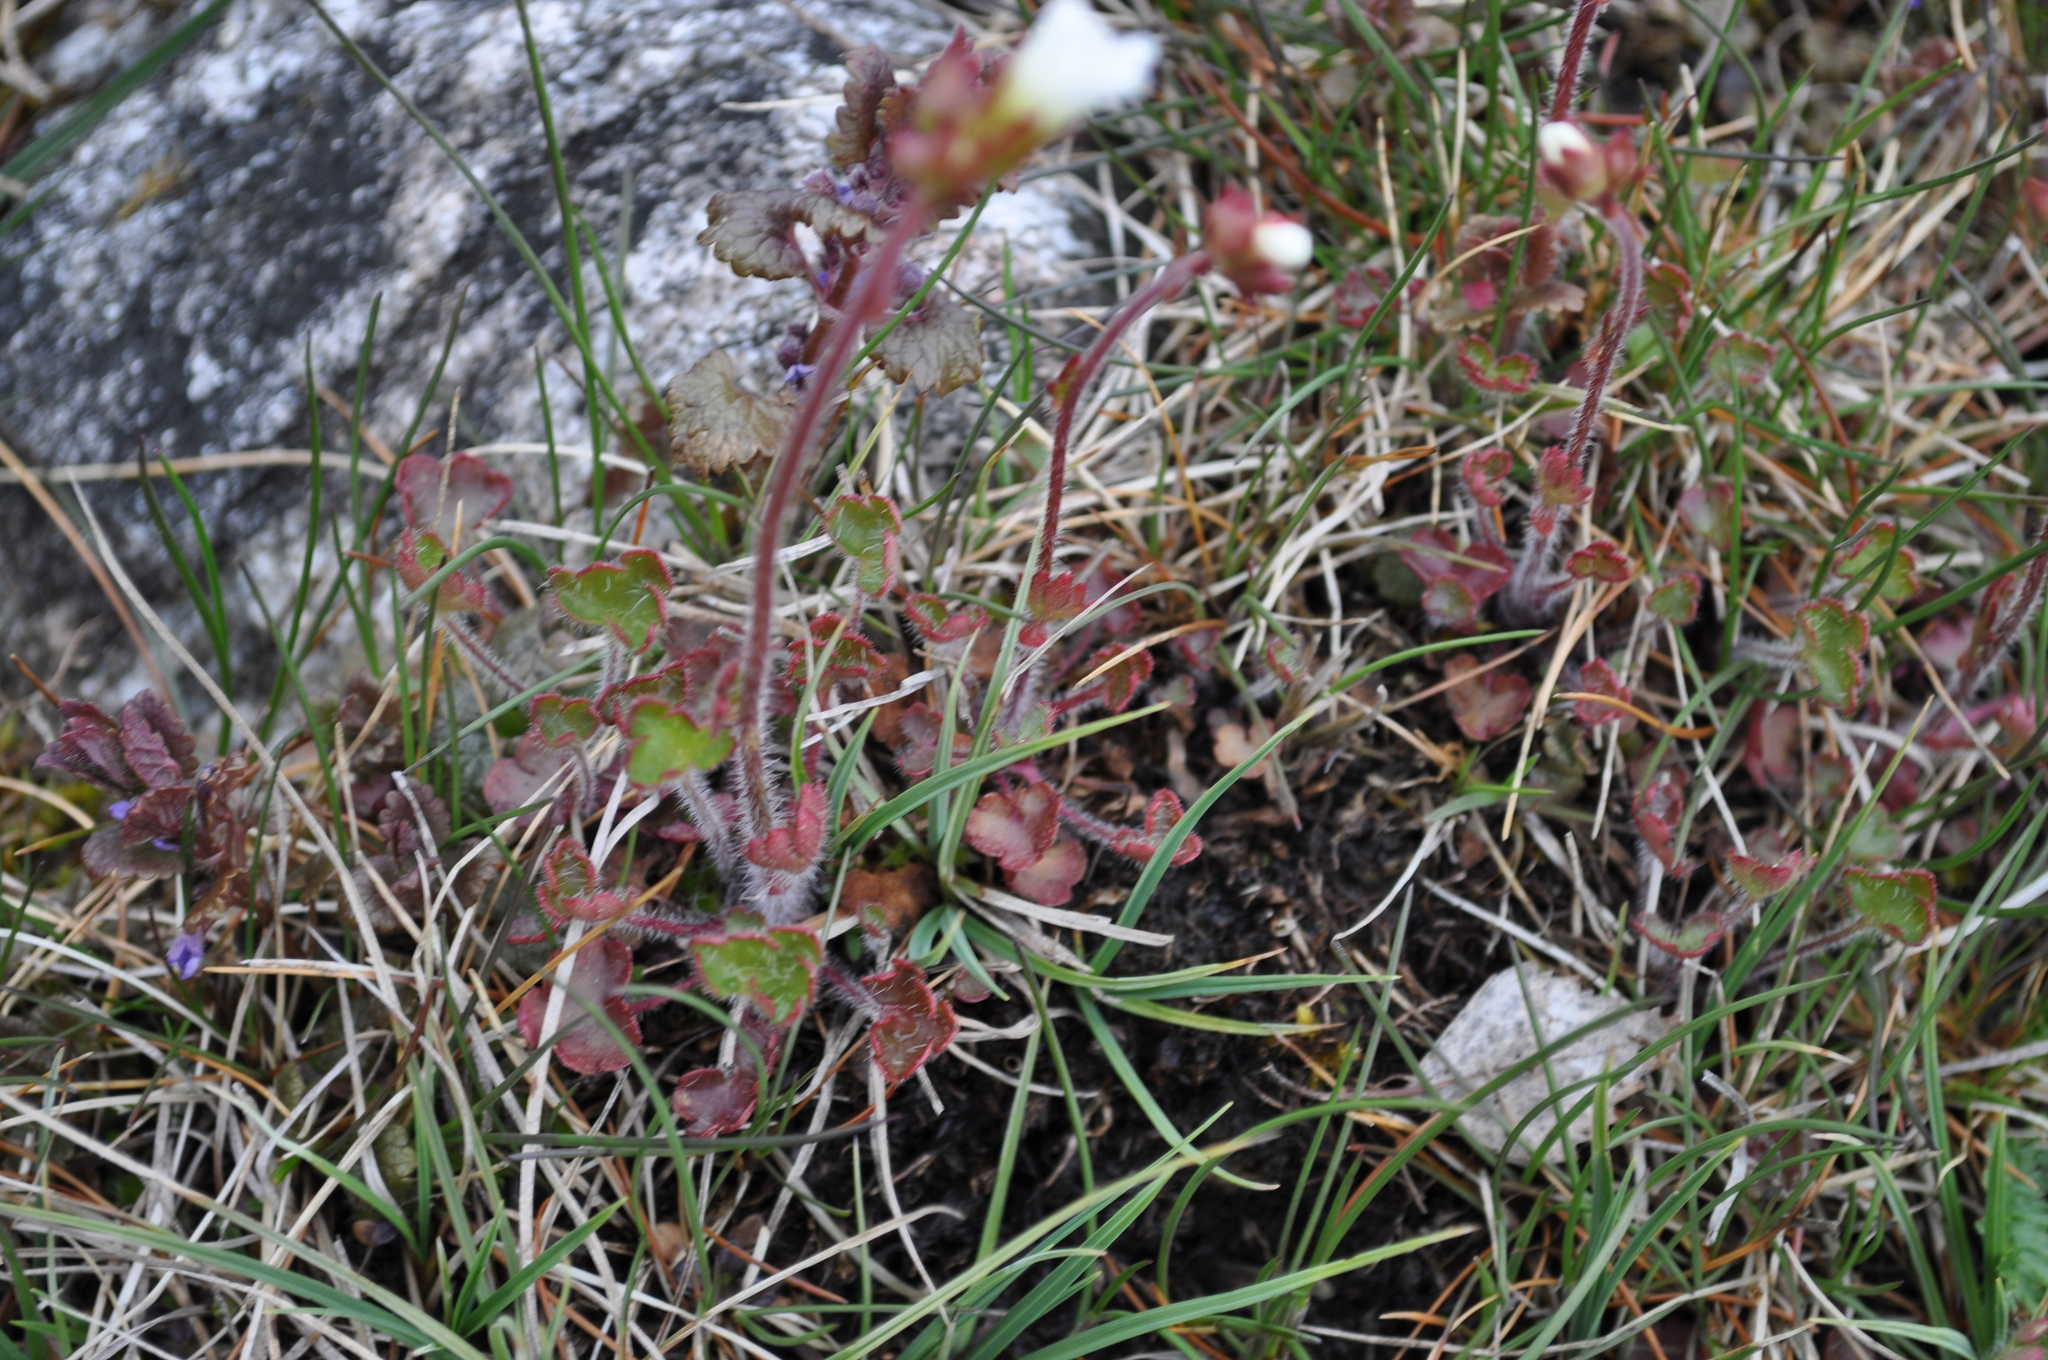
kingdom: Plantae
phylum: Tracheophyta
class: Magnoliopsida
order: Saxifragales
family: Saxifragaceae
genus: Saxifraga
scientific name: Saxifraga granulata
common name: Meadow saxifrage
